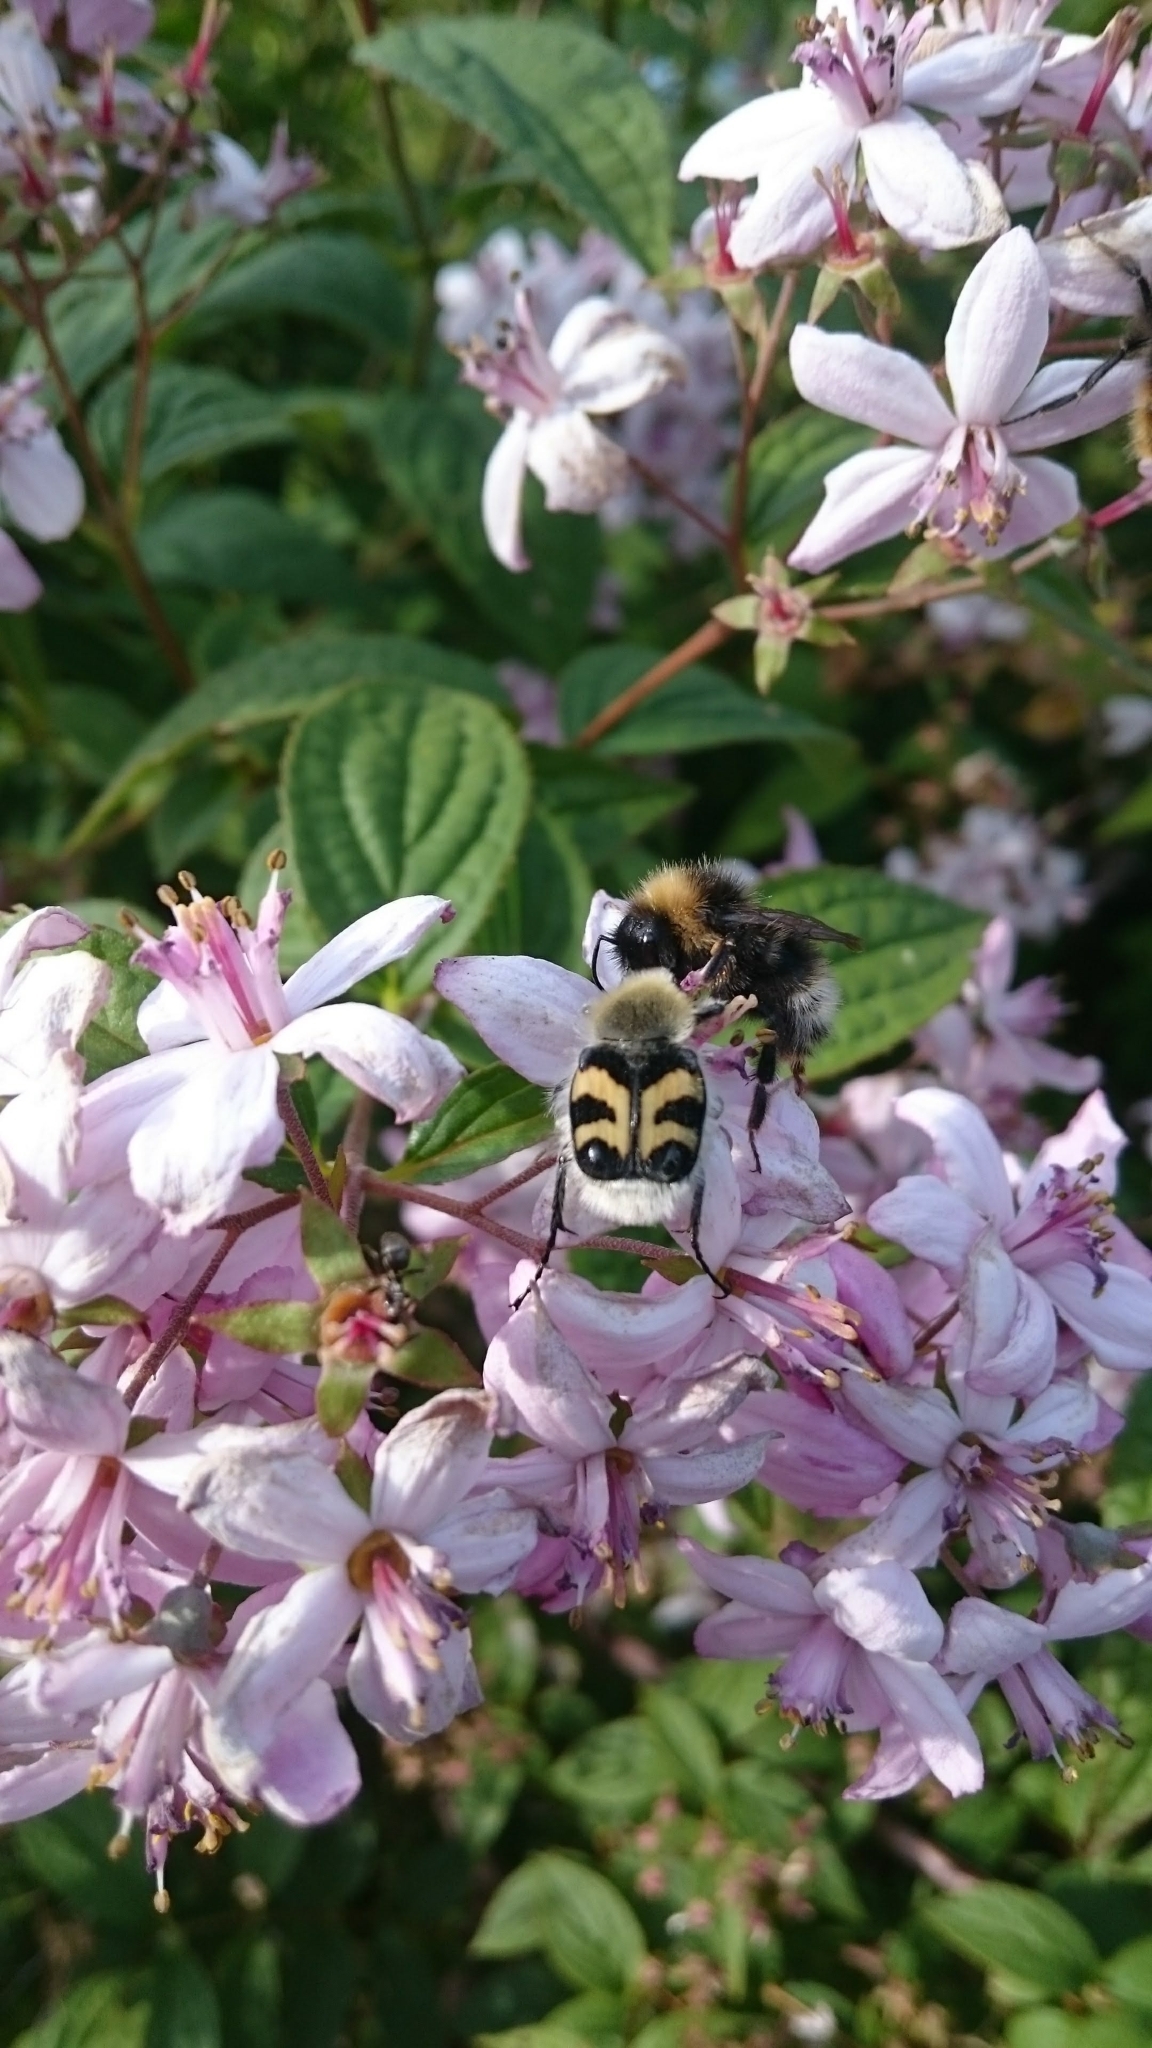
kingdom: Animalia
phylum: Arthropoda
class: Insecta
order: Coleoptera
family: Scarabaeidae
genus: Trichius
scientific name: Trichius fasciatus
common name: Bee beetle
